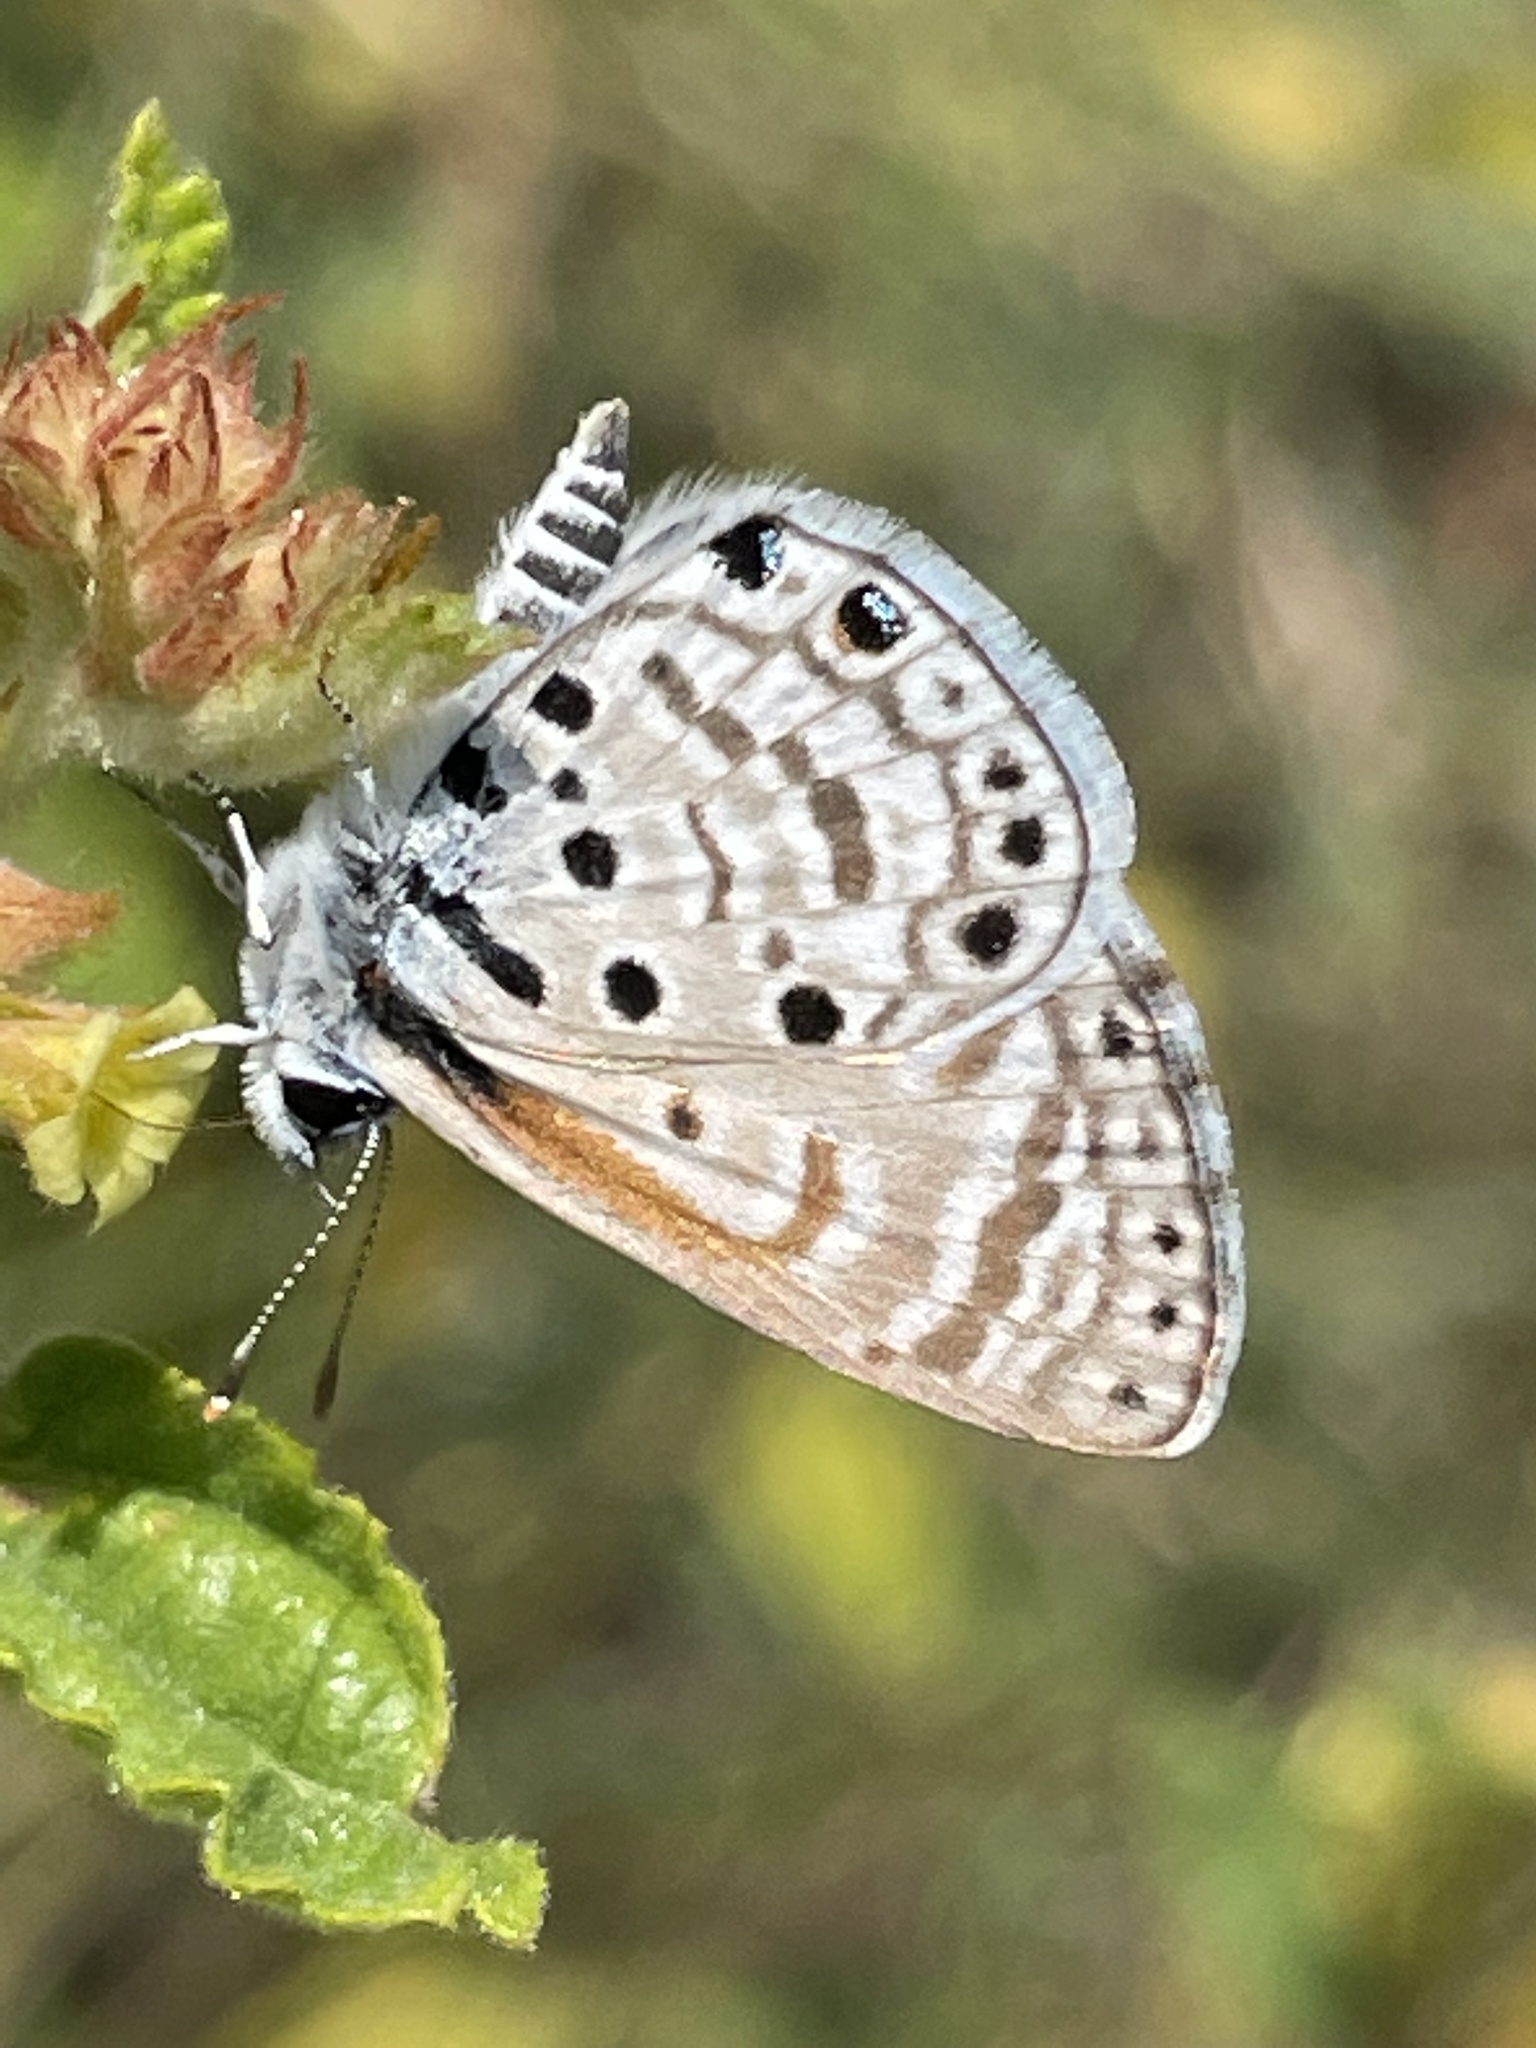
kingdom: Animalia
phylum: Arthropoda
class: Insecta
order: Lepidoptera
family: Lycaenidae
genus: Azanus
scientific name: Azanus jesous
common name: African babul blue
